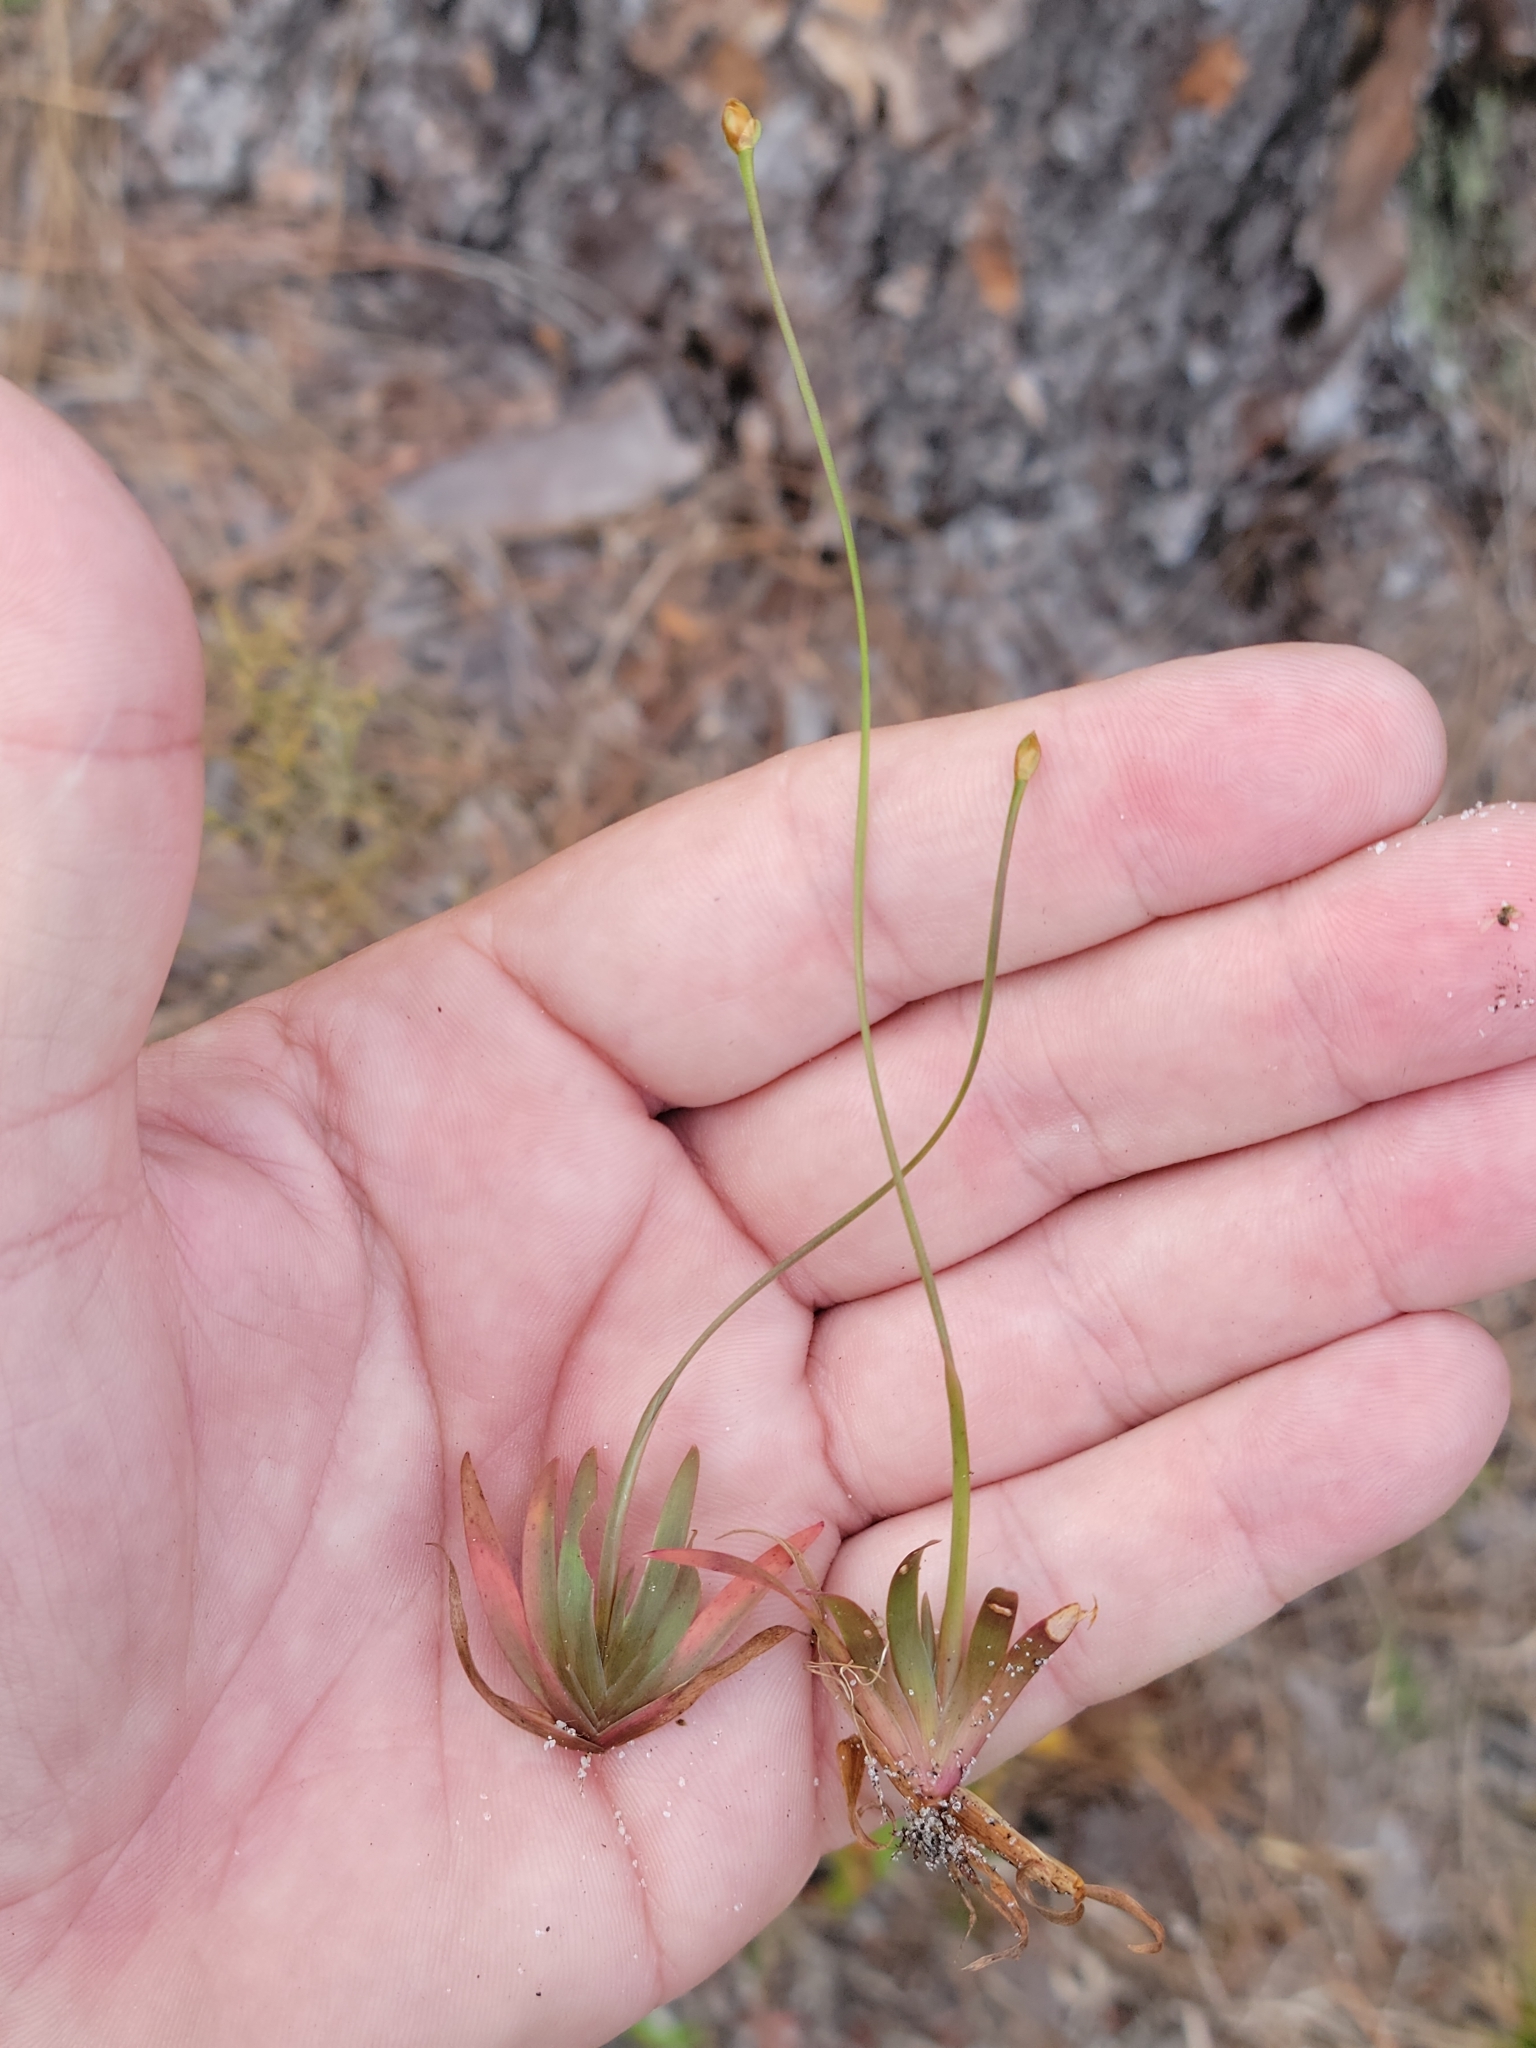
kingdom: Plantae
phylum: Tracheophyta
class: Liliopsida
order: Poales
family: Xyridaceae
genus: Xyris
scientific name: Xyris flabelliformis
